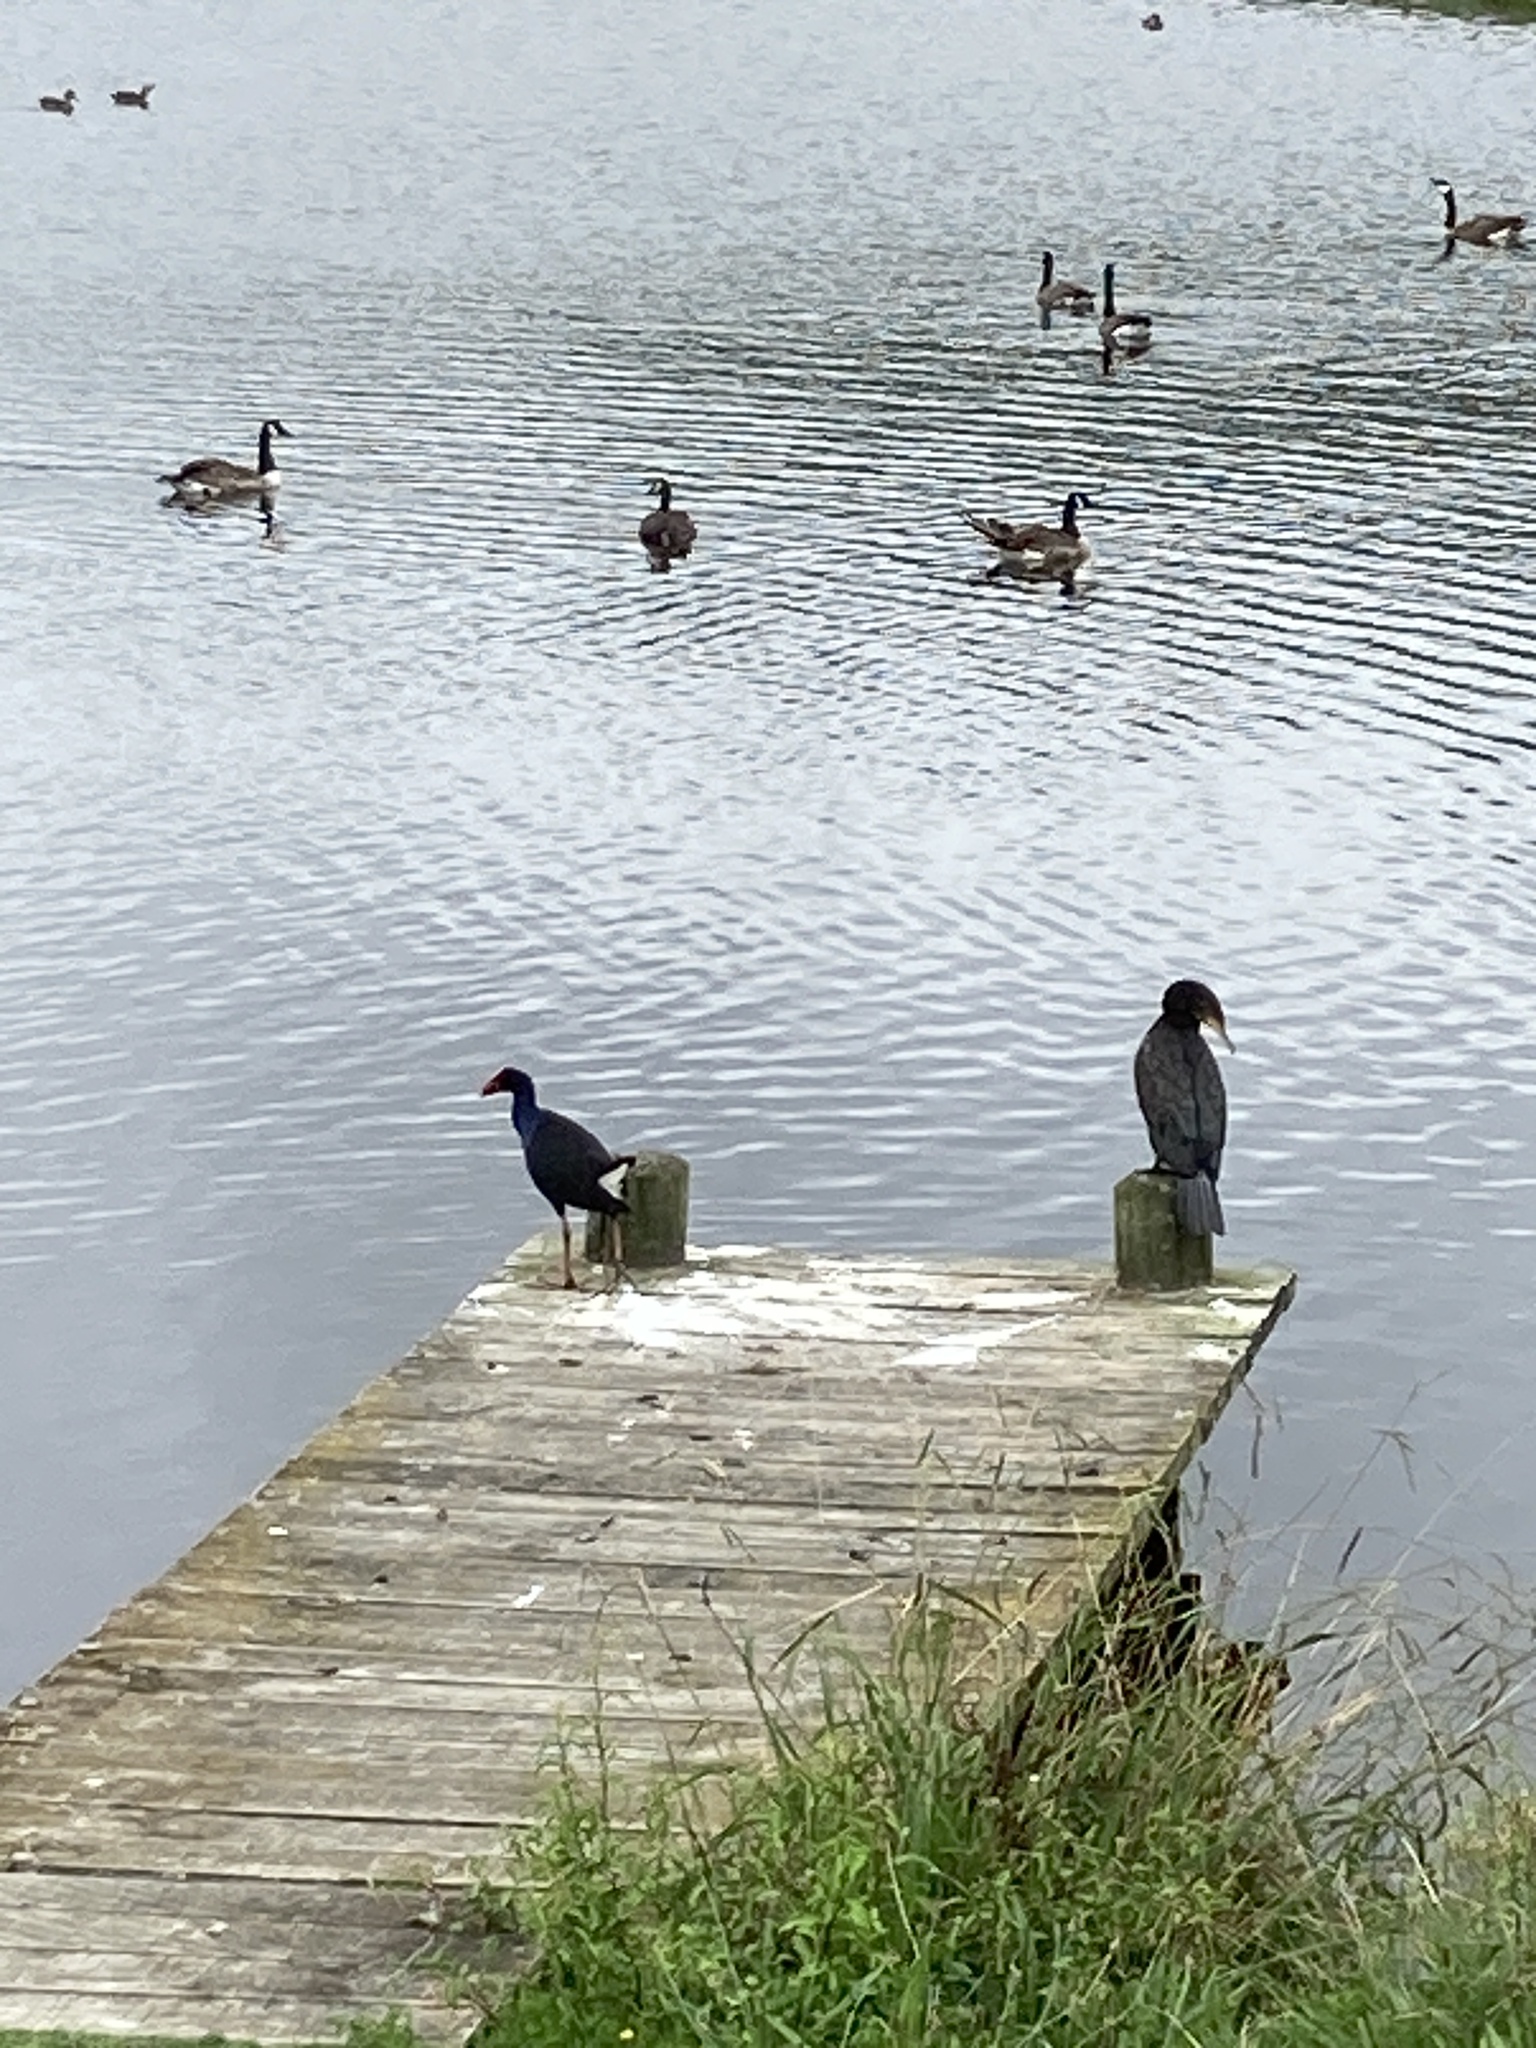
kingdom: Animalia
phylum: Chordata
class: Aves
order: Suliformes
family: Phalacrocoracidae
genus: Phalacrocorax
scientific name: Phalacrocorax carbo
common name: Great cormorant
